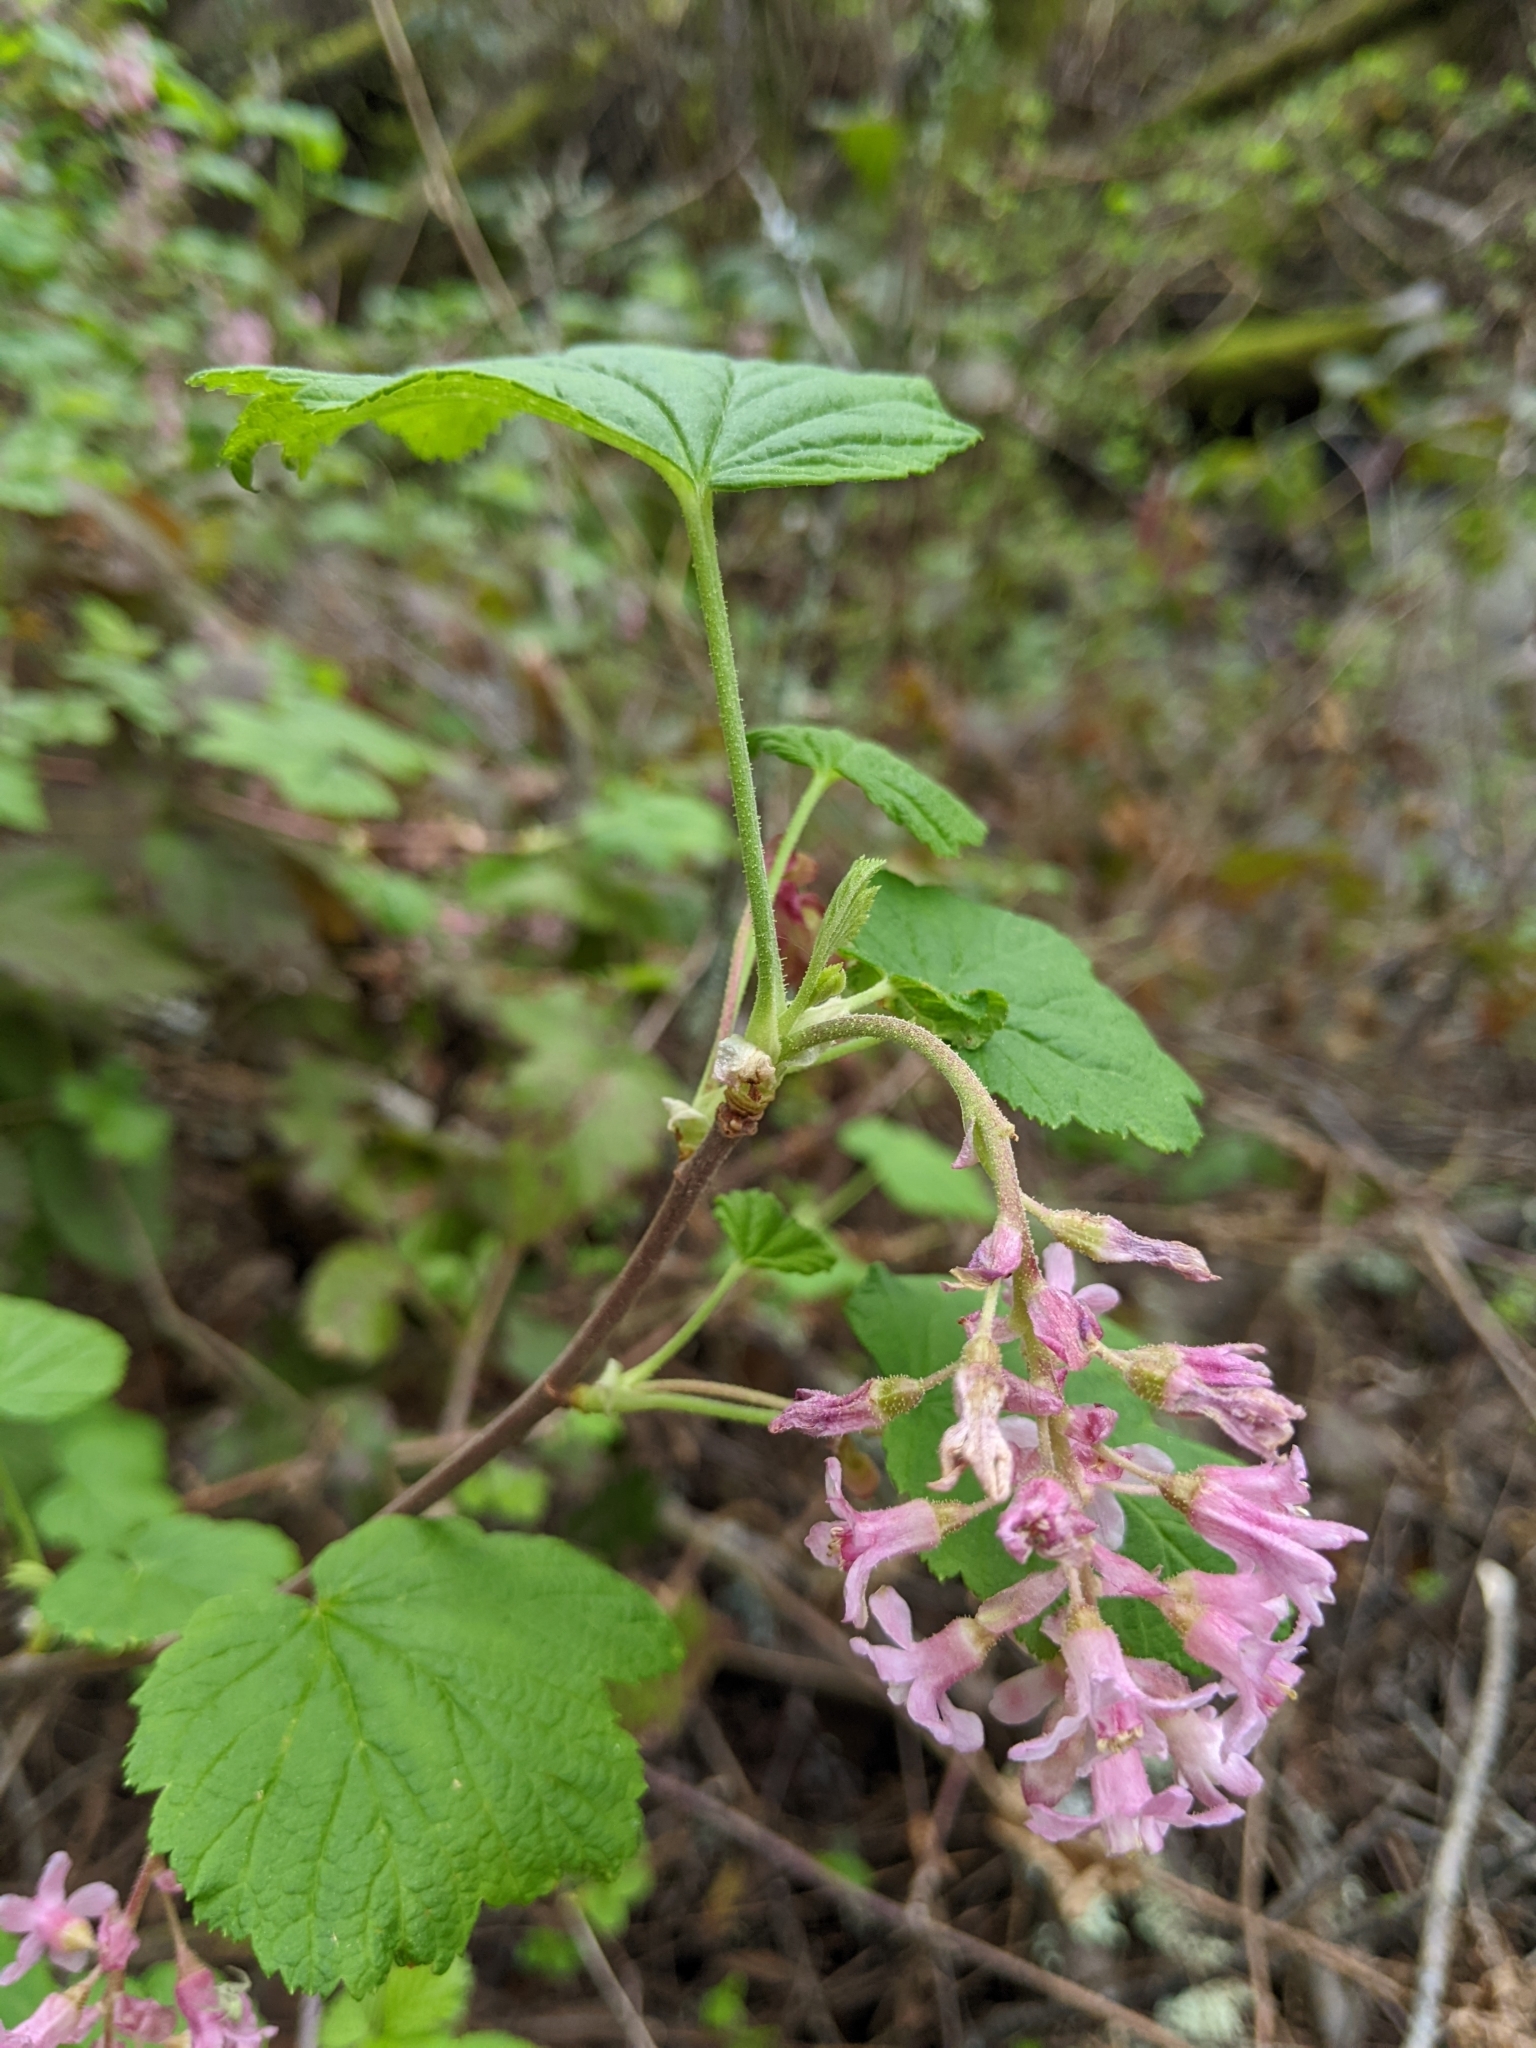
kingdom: Plantae
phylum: Tracheophyta
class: Magnoliopsida
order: Saxifragales
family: Grossulariaceae
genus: Ribes
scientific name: Ribes sanguineum
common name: Flowering currant
